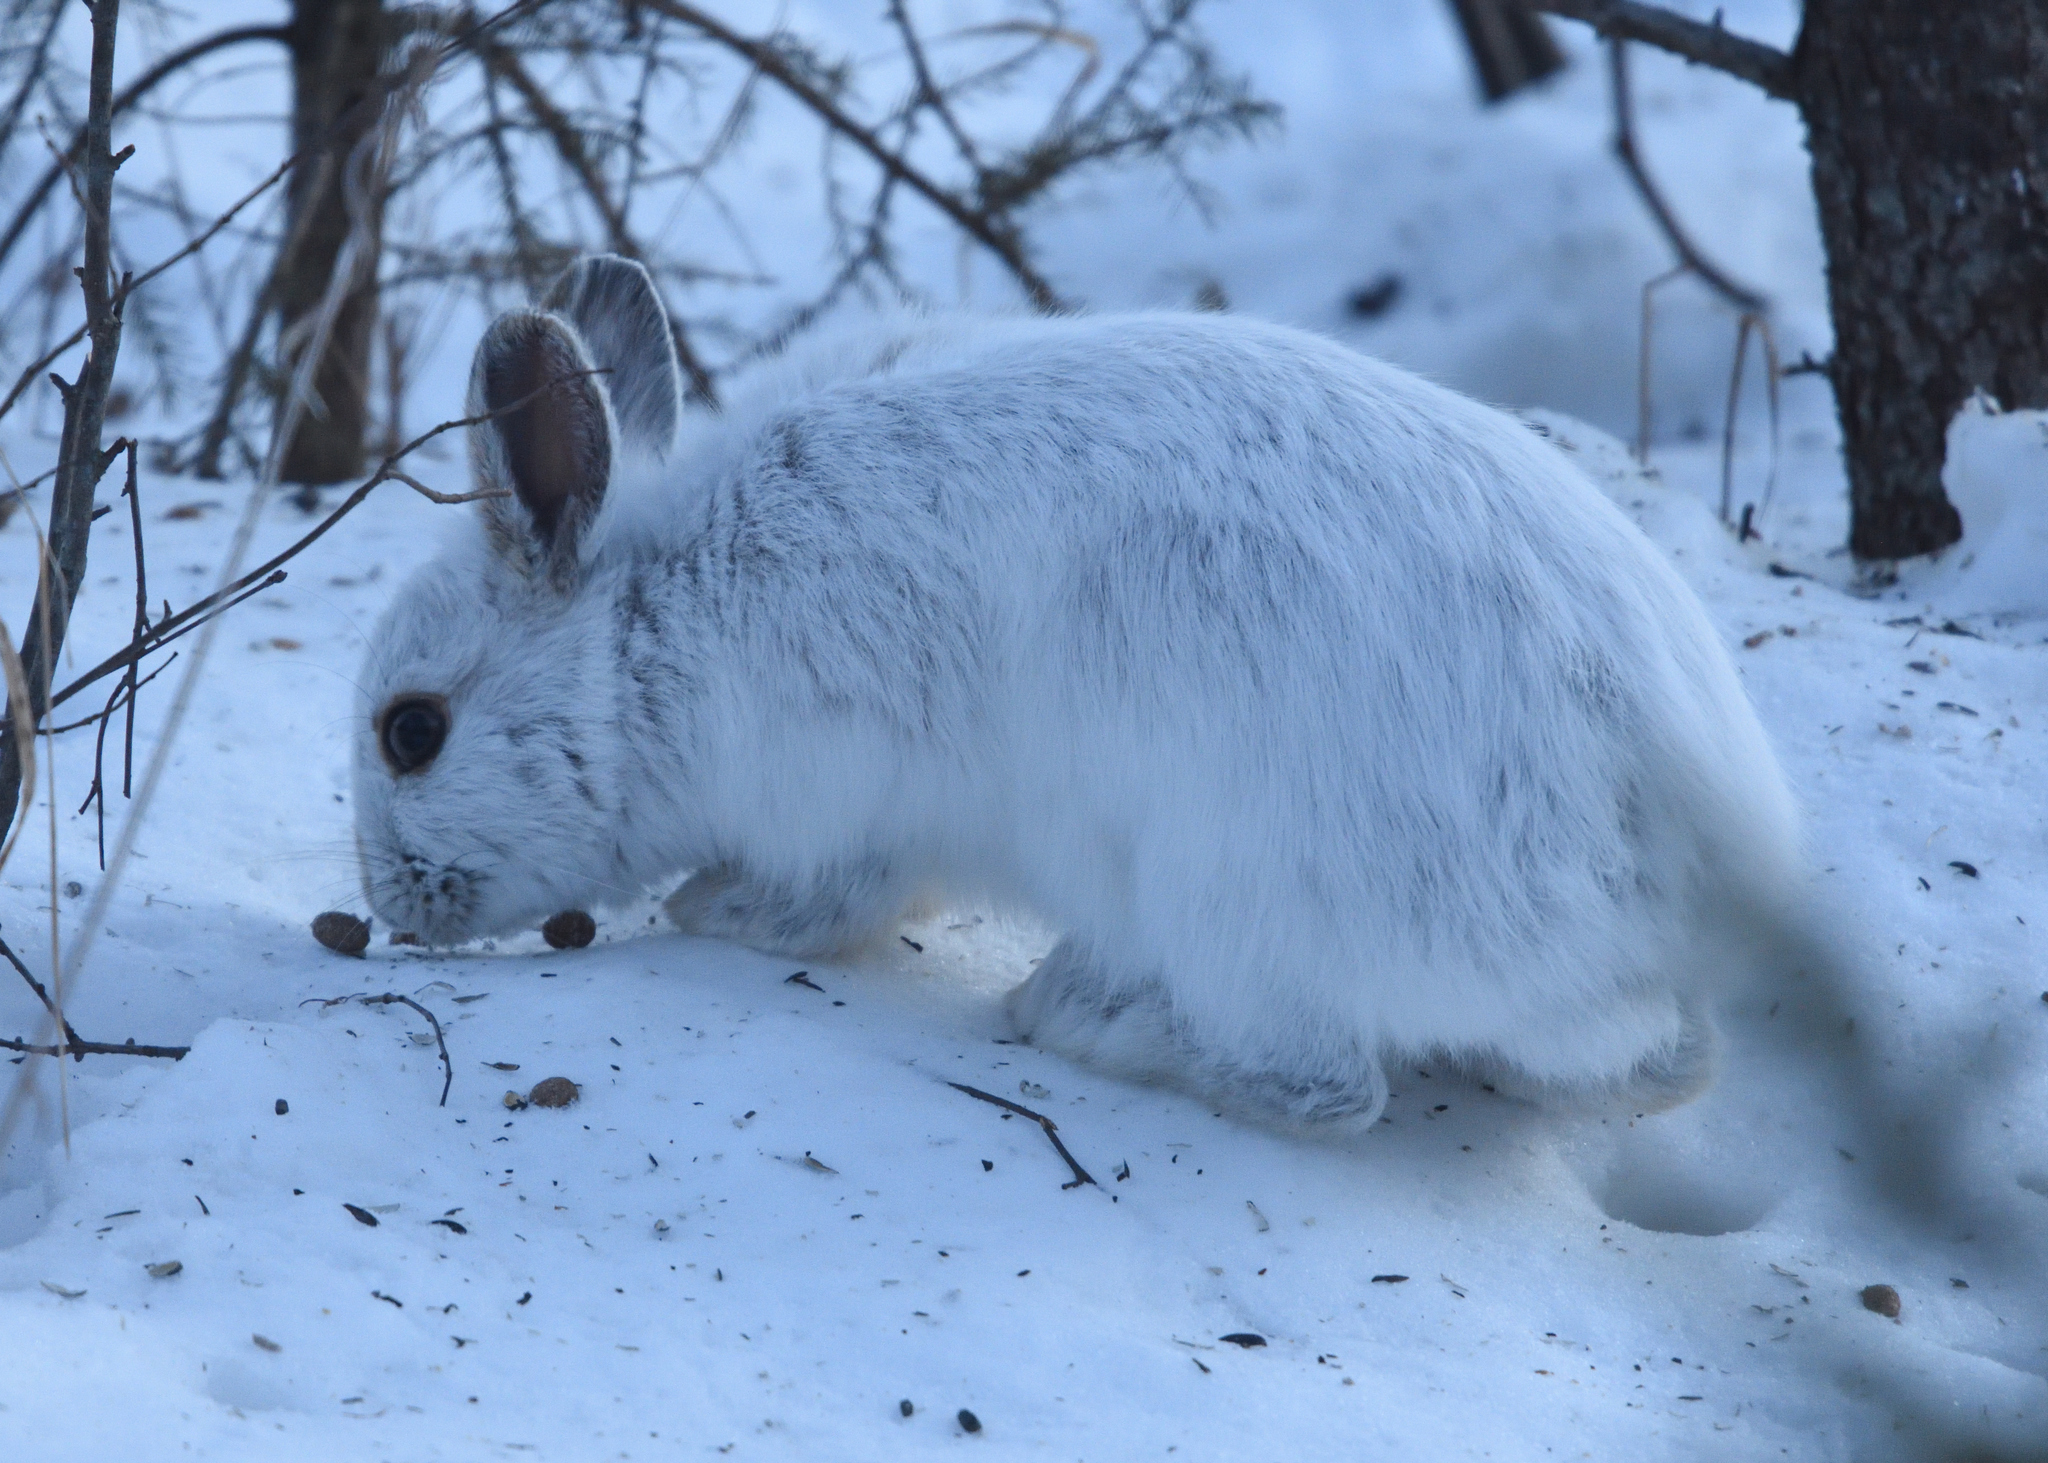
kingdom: Animalia
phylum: Chordata
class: Mammalia
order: Lagomorpha
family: Leporidae
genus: Lepus
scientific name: Lepus americanus
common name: Snowshoe hare
